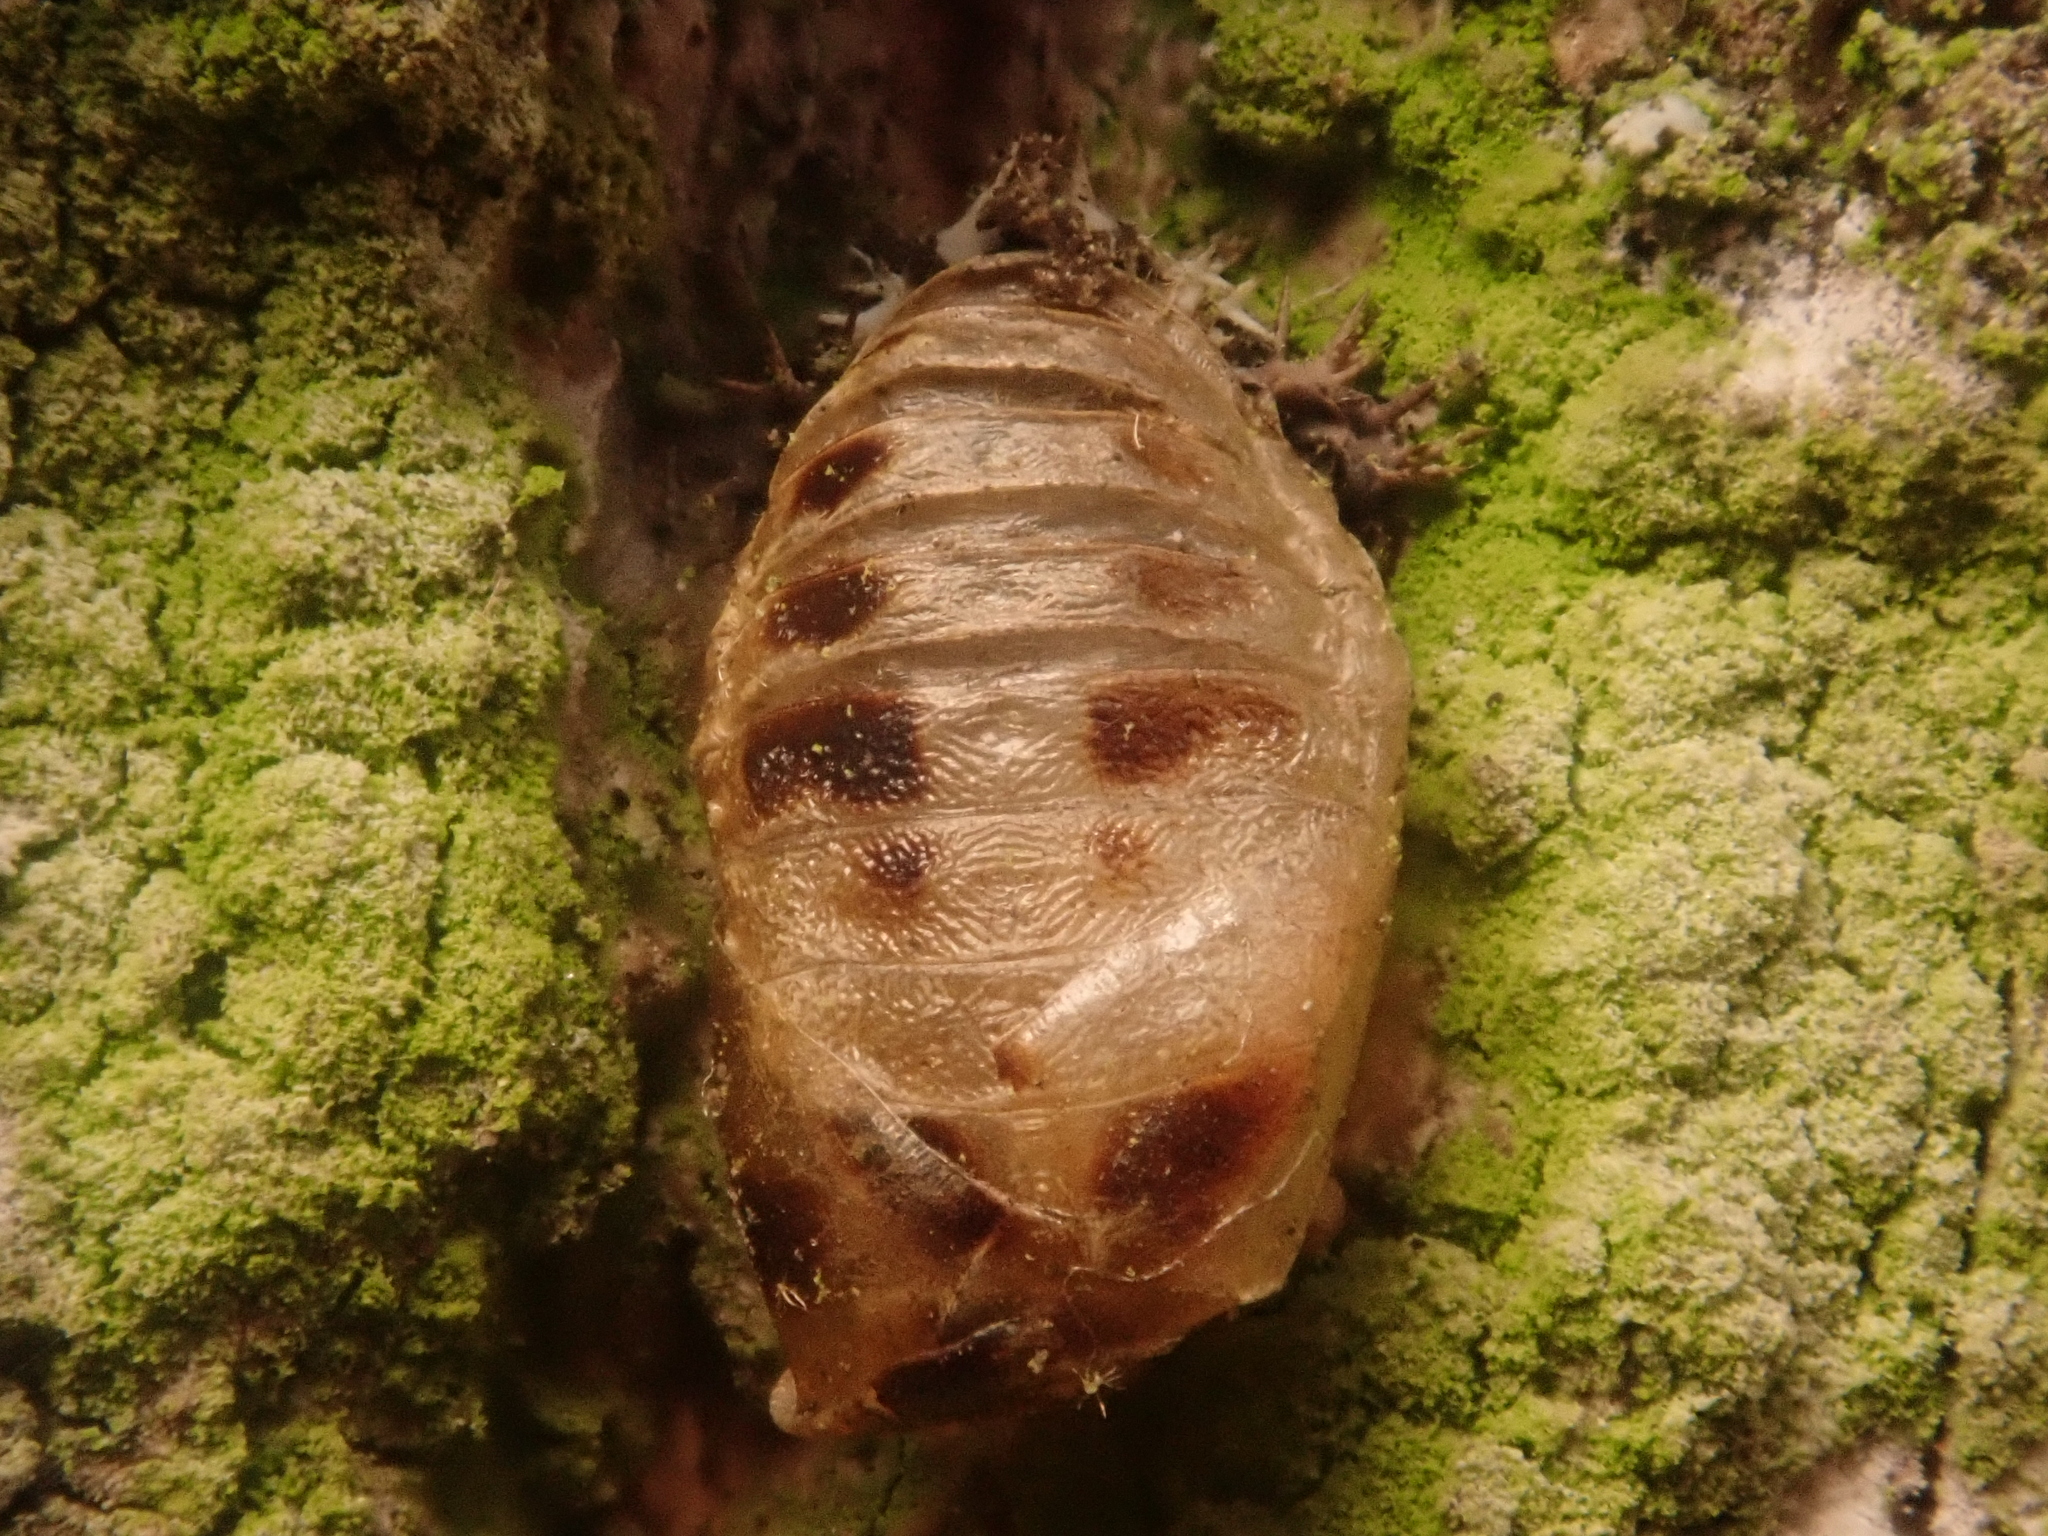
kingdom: Animalia
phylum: Arthropoda
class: Insecta
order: Coleoptera
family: Coccinellidae
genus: Harmonia
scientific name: Harmonia axyridis
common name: Harlequin ladybird
